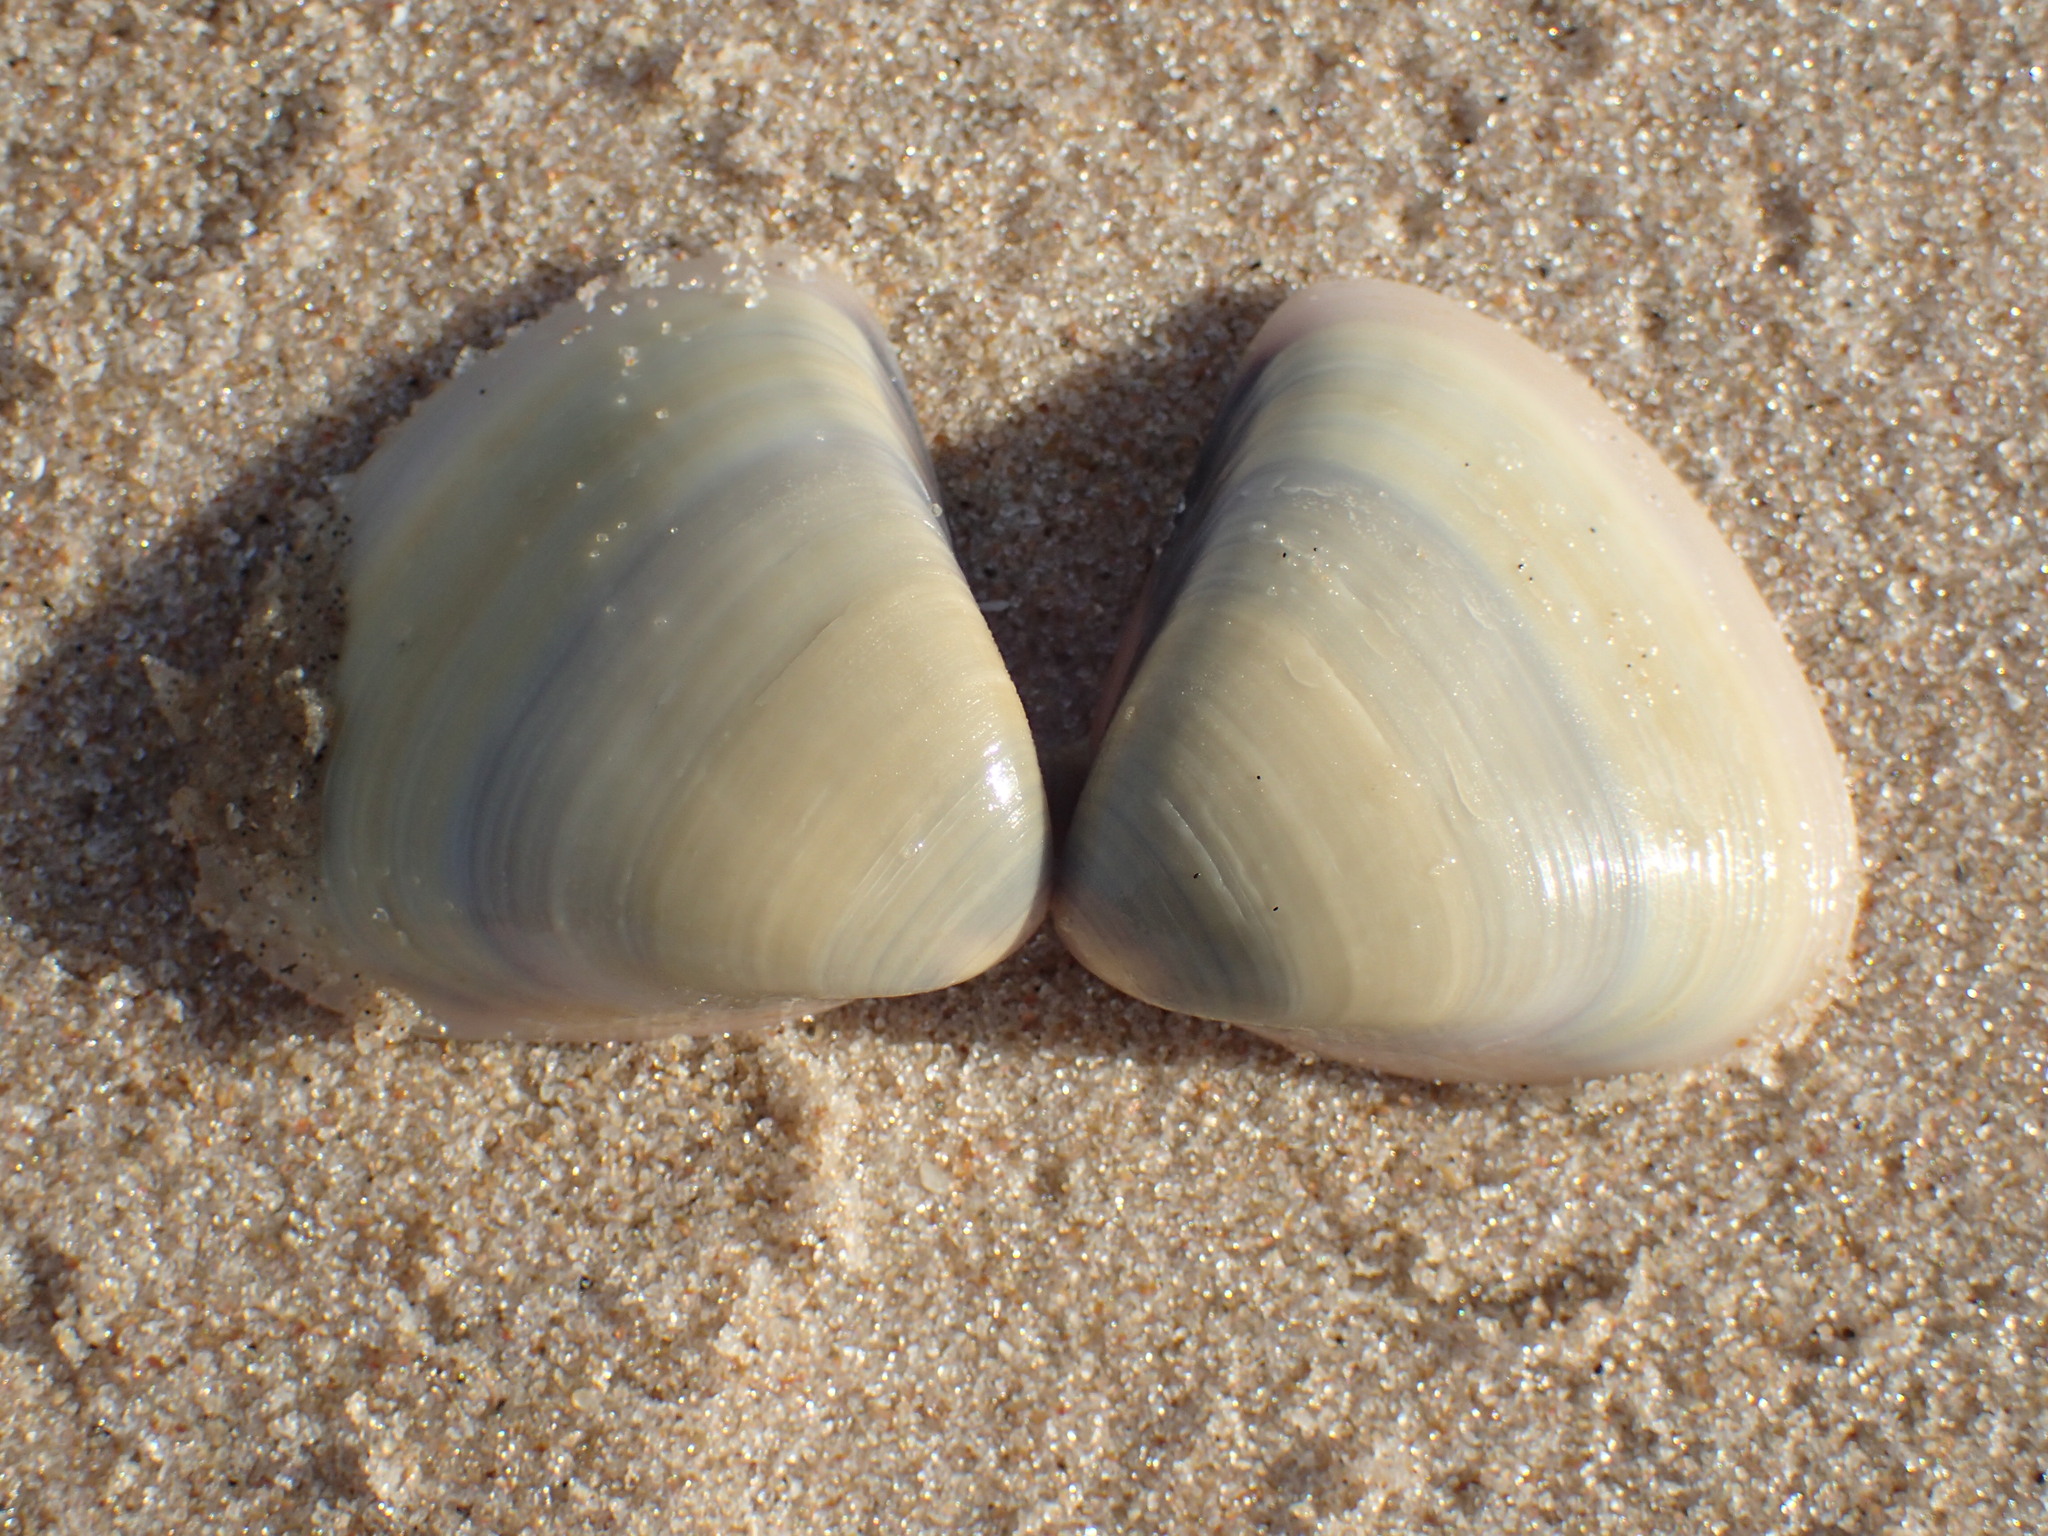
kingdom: Animalia
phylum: Mollusca
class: Bivalvia
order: Venerida
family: Veneridae
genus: Tivela
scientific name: Tivela tripla
